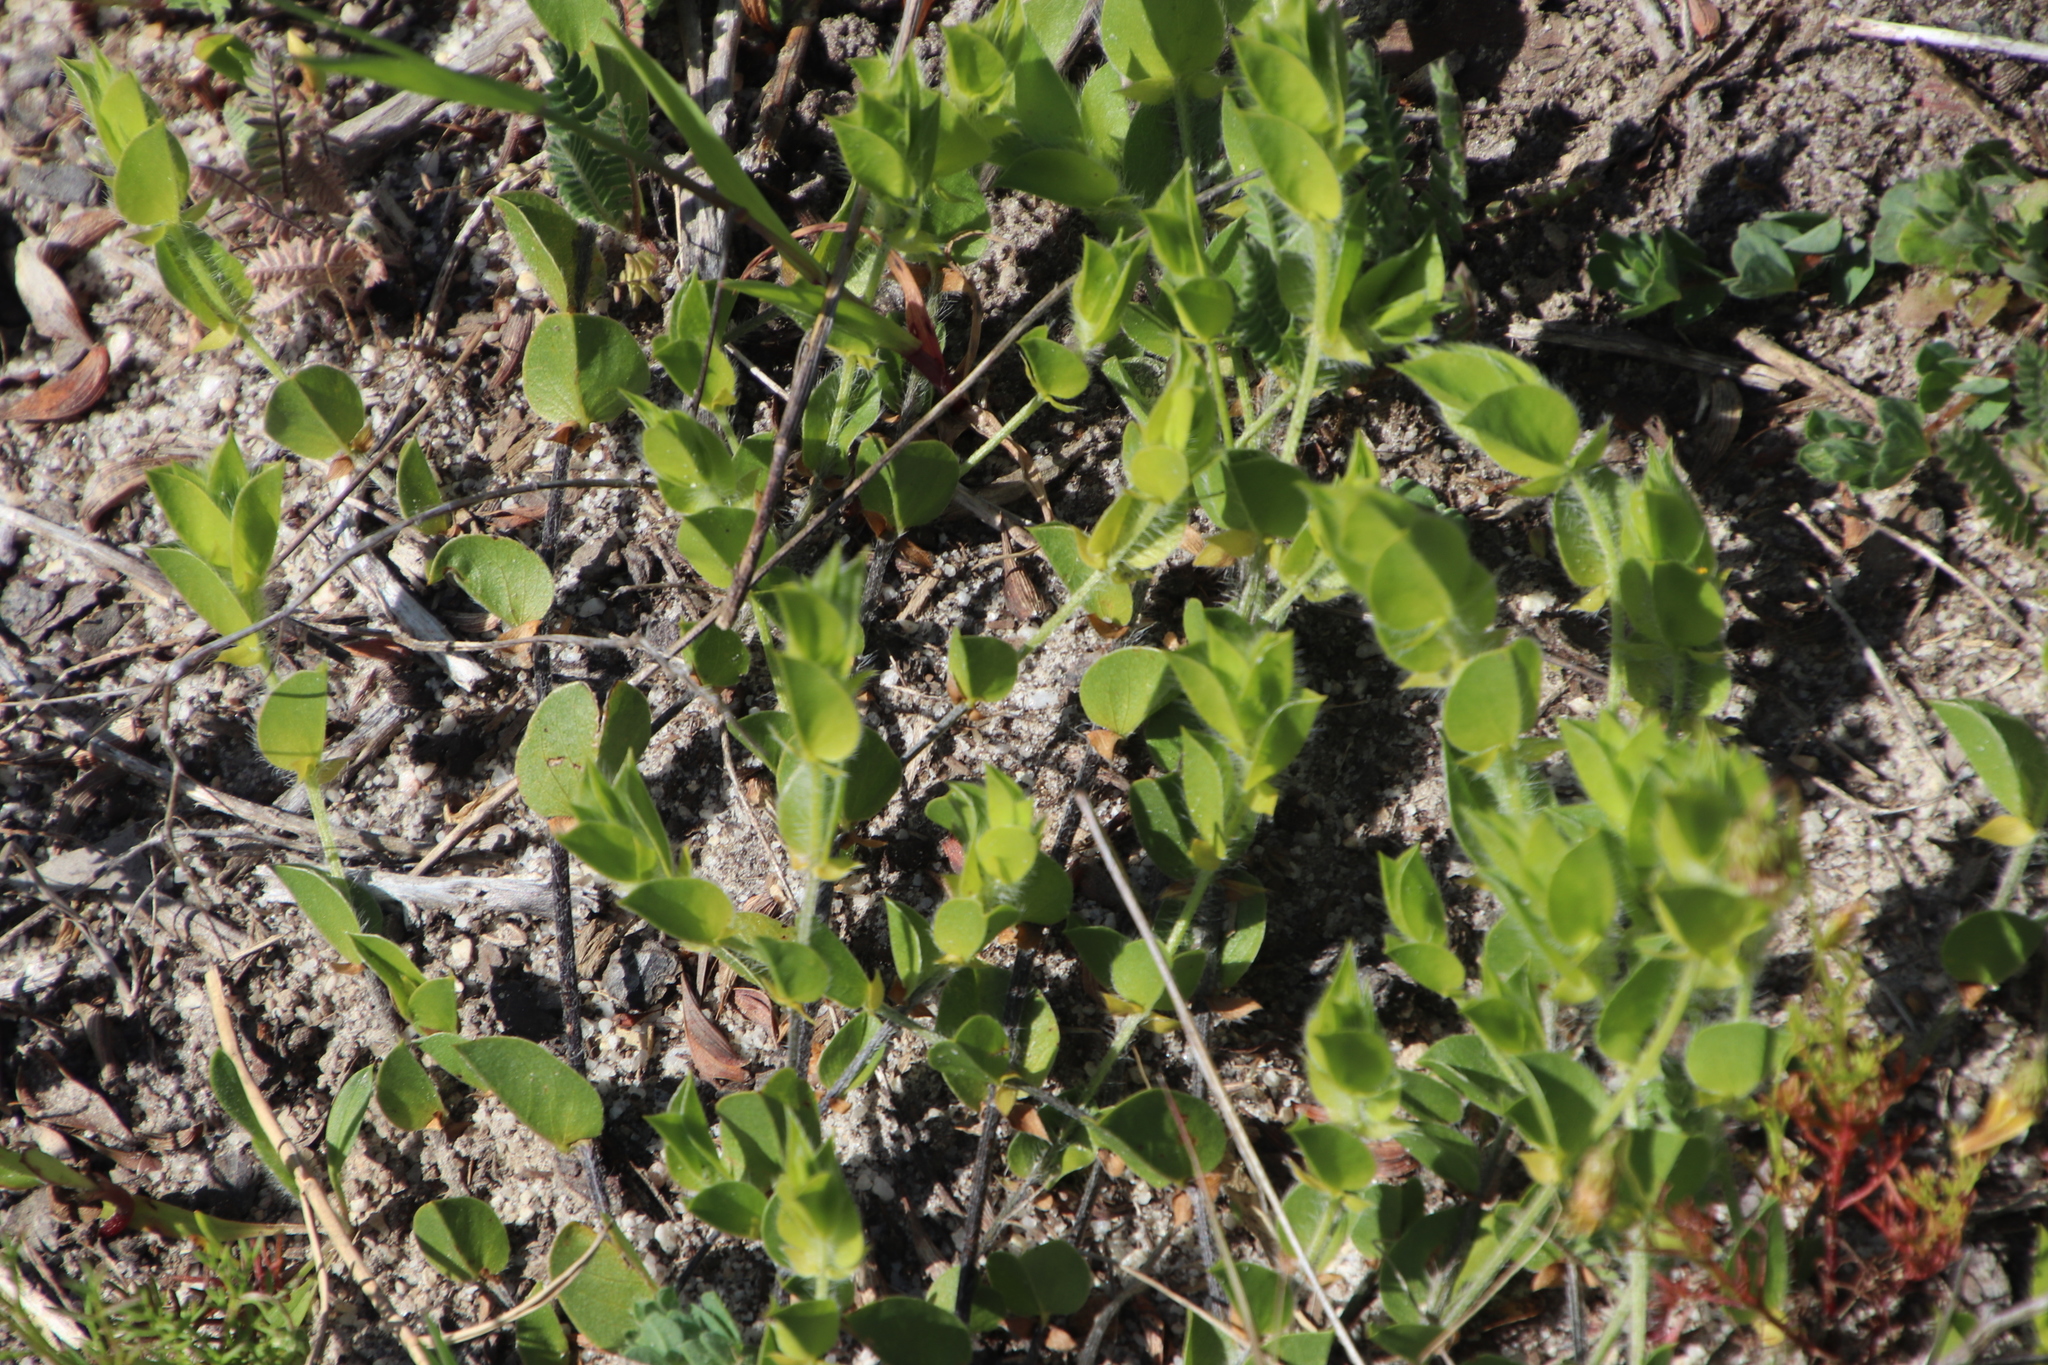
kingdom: Plantae
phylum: Tracheophyta
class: Magnoliopsida
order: Fabales
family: Fabaceae
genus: Psoralea
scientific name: Psoralea asarina
